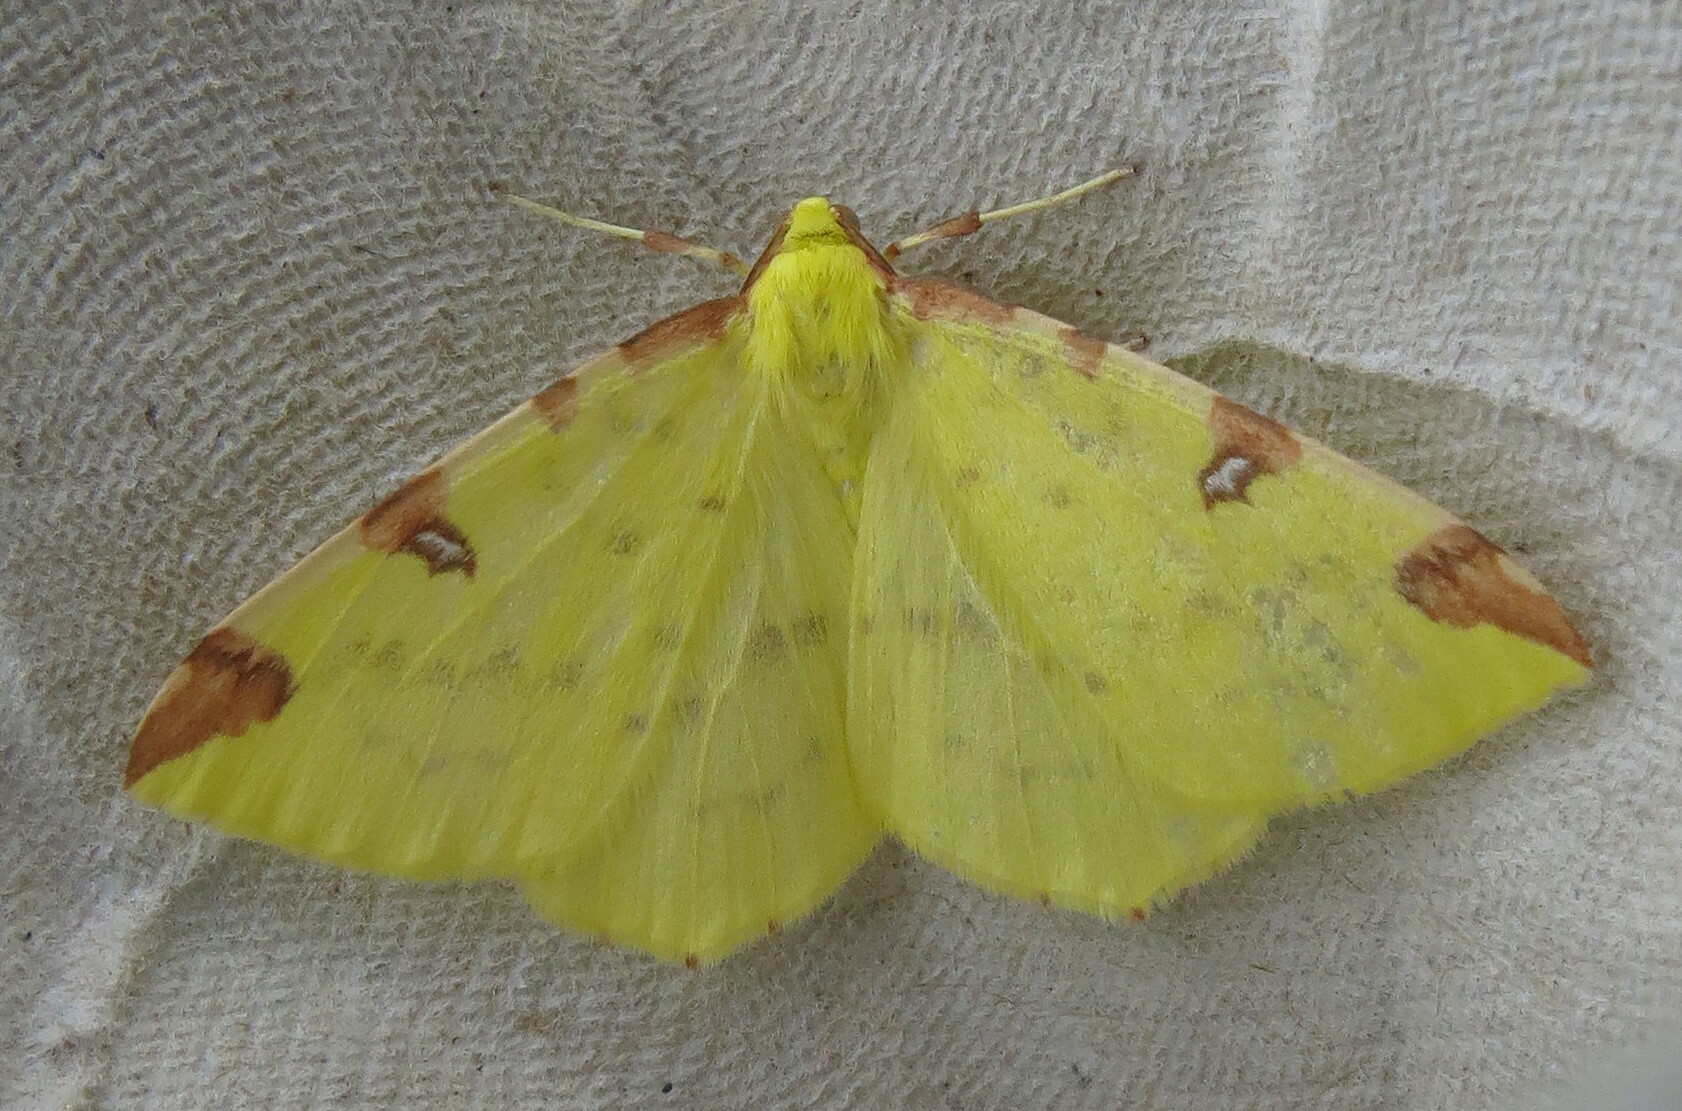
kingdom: Animalia
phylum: Arthropoda
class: Insecta
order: Lepidoptera
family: Geometridae
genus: Opisthograptis
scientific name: Opisthograptis luteolata
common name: Brimstone moth
